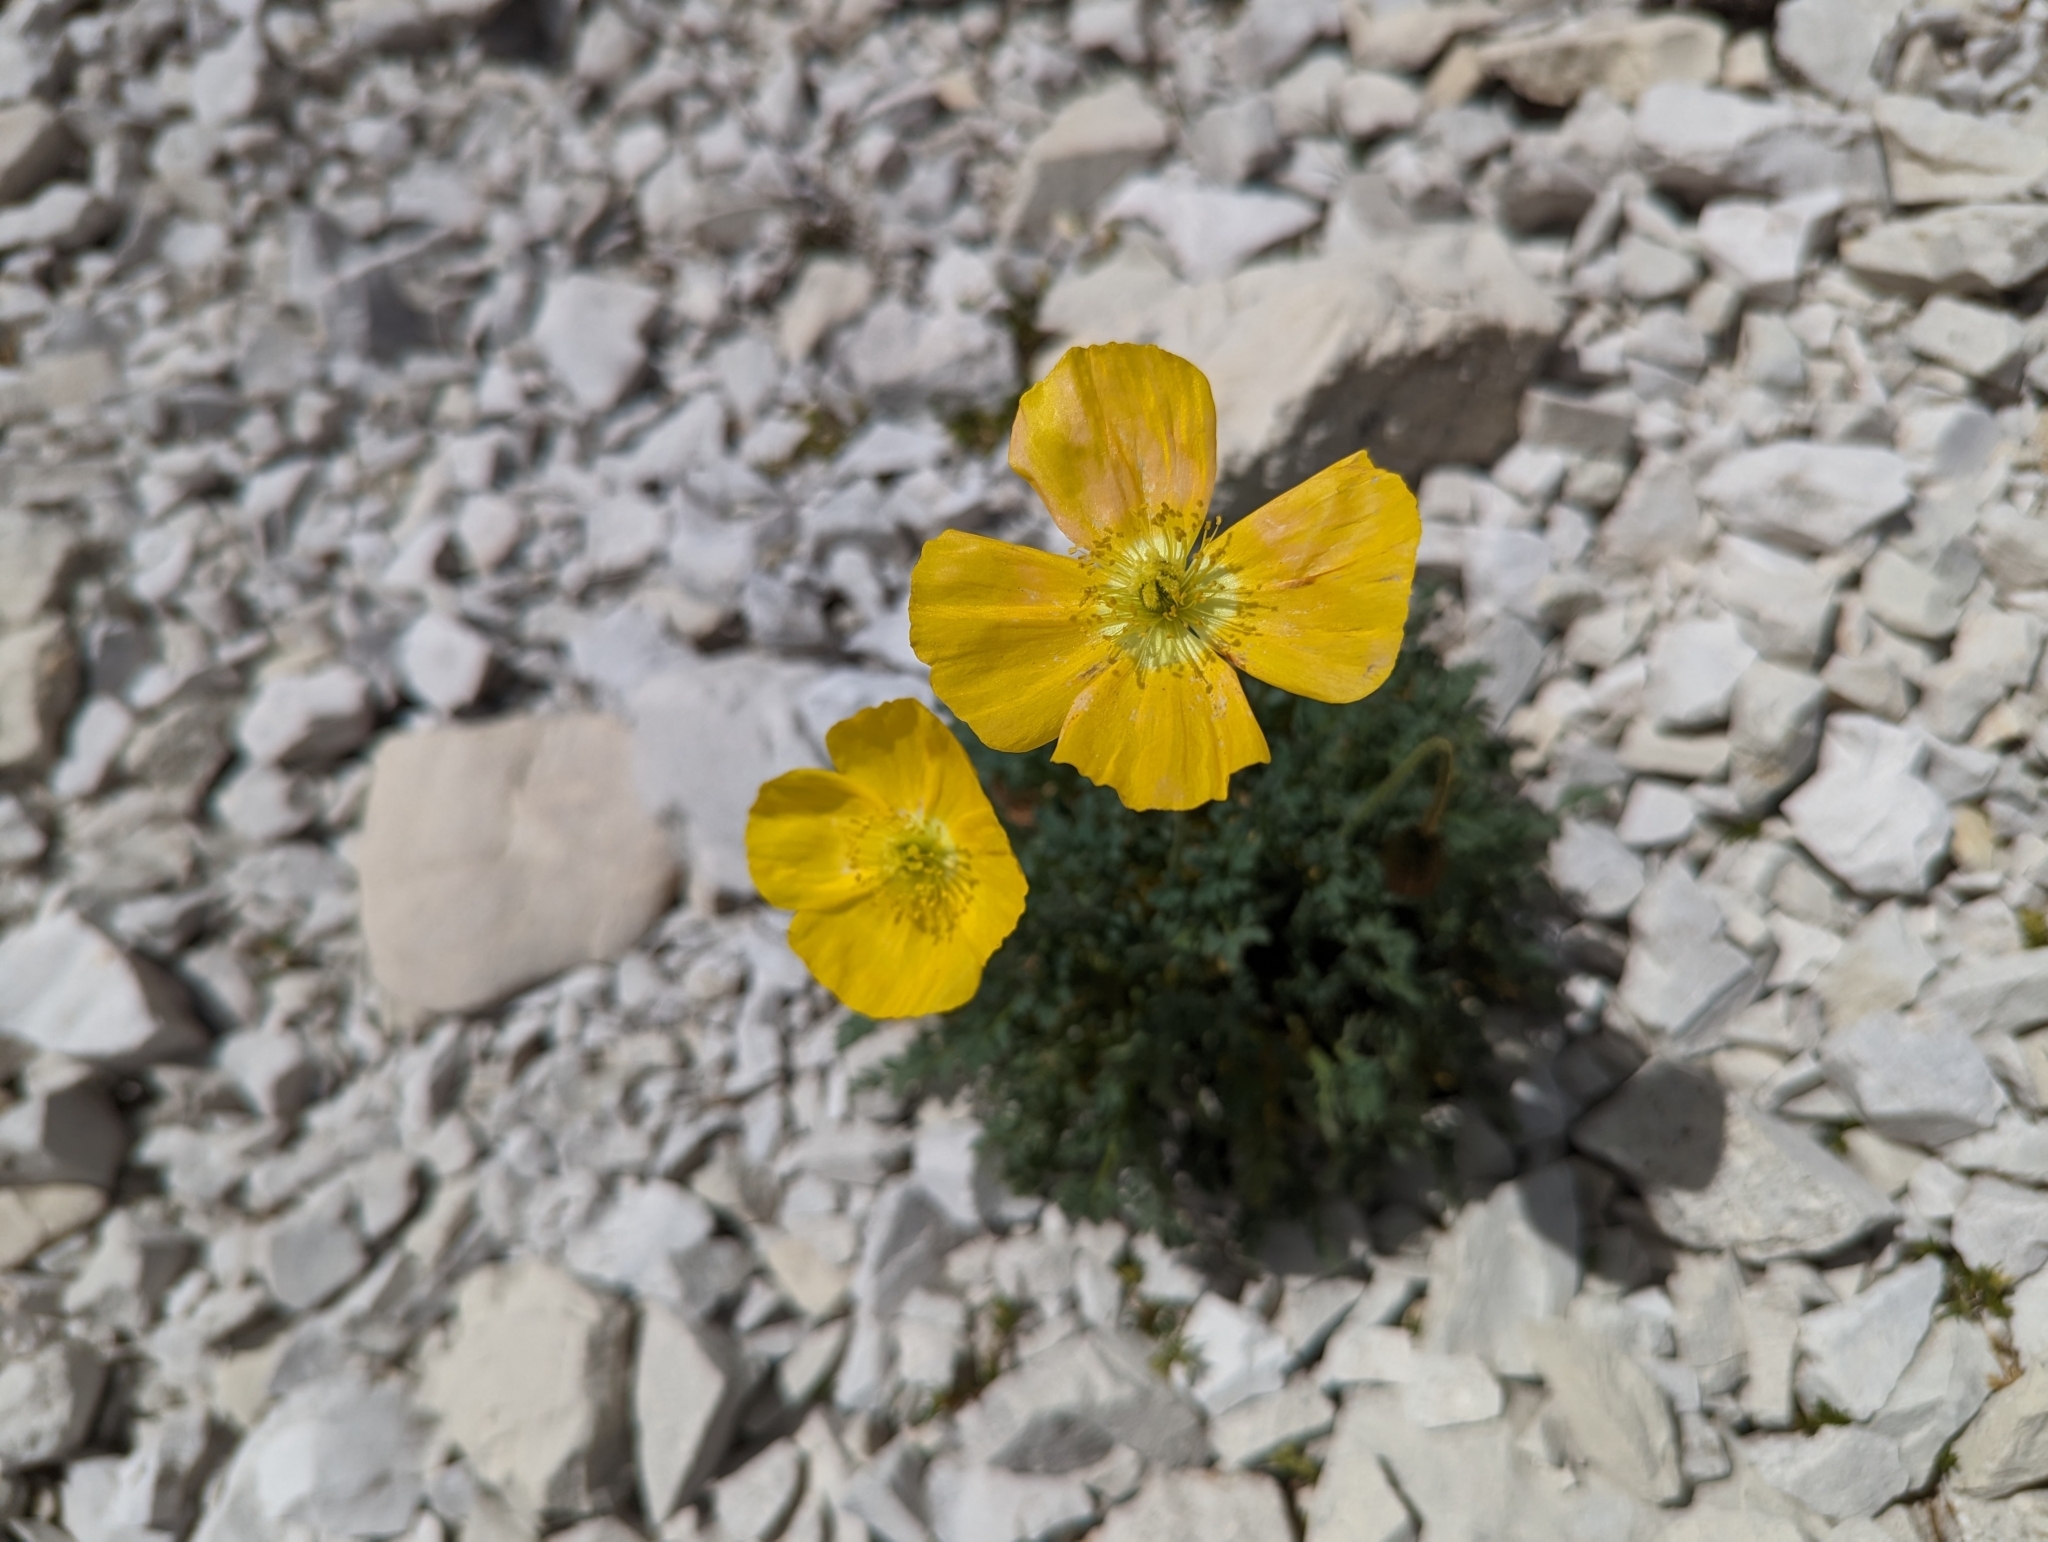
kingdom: Plantae
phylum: Tracheophyta
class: Magnoliopsida
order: Ranunculales
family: Papaveraceae
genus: Papaver
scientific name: Papaver alpinum
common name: Austrian poppy
